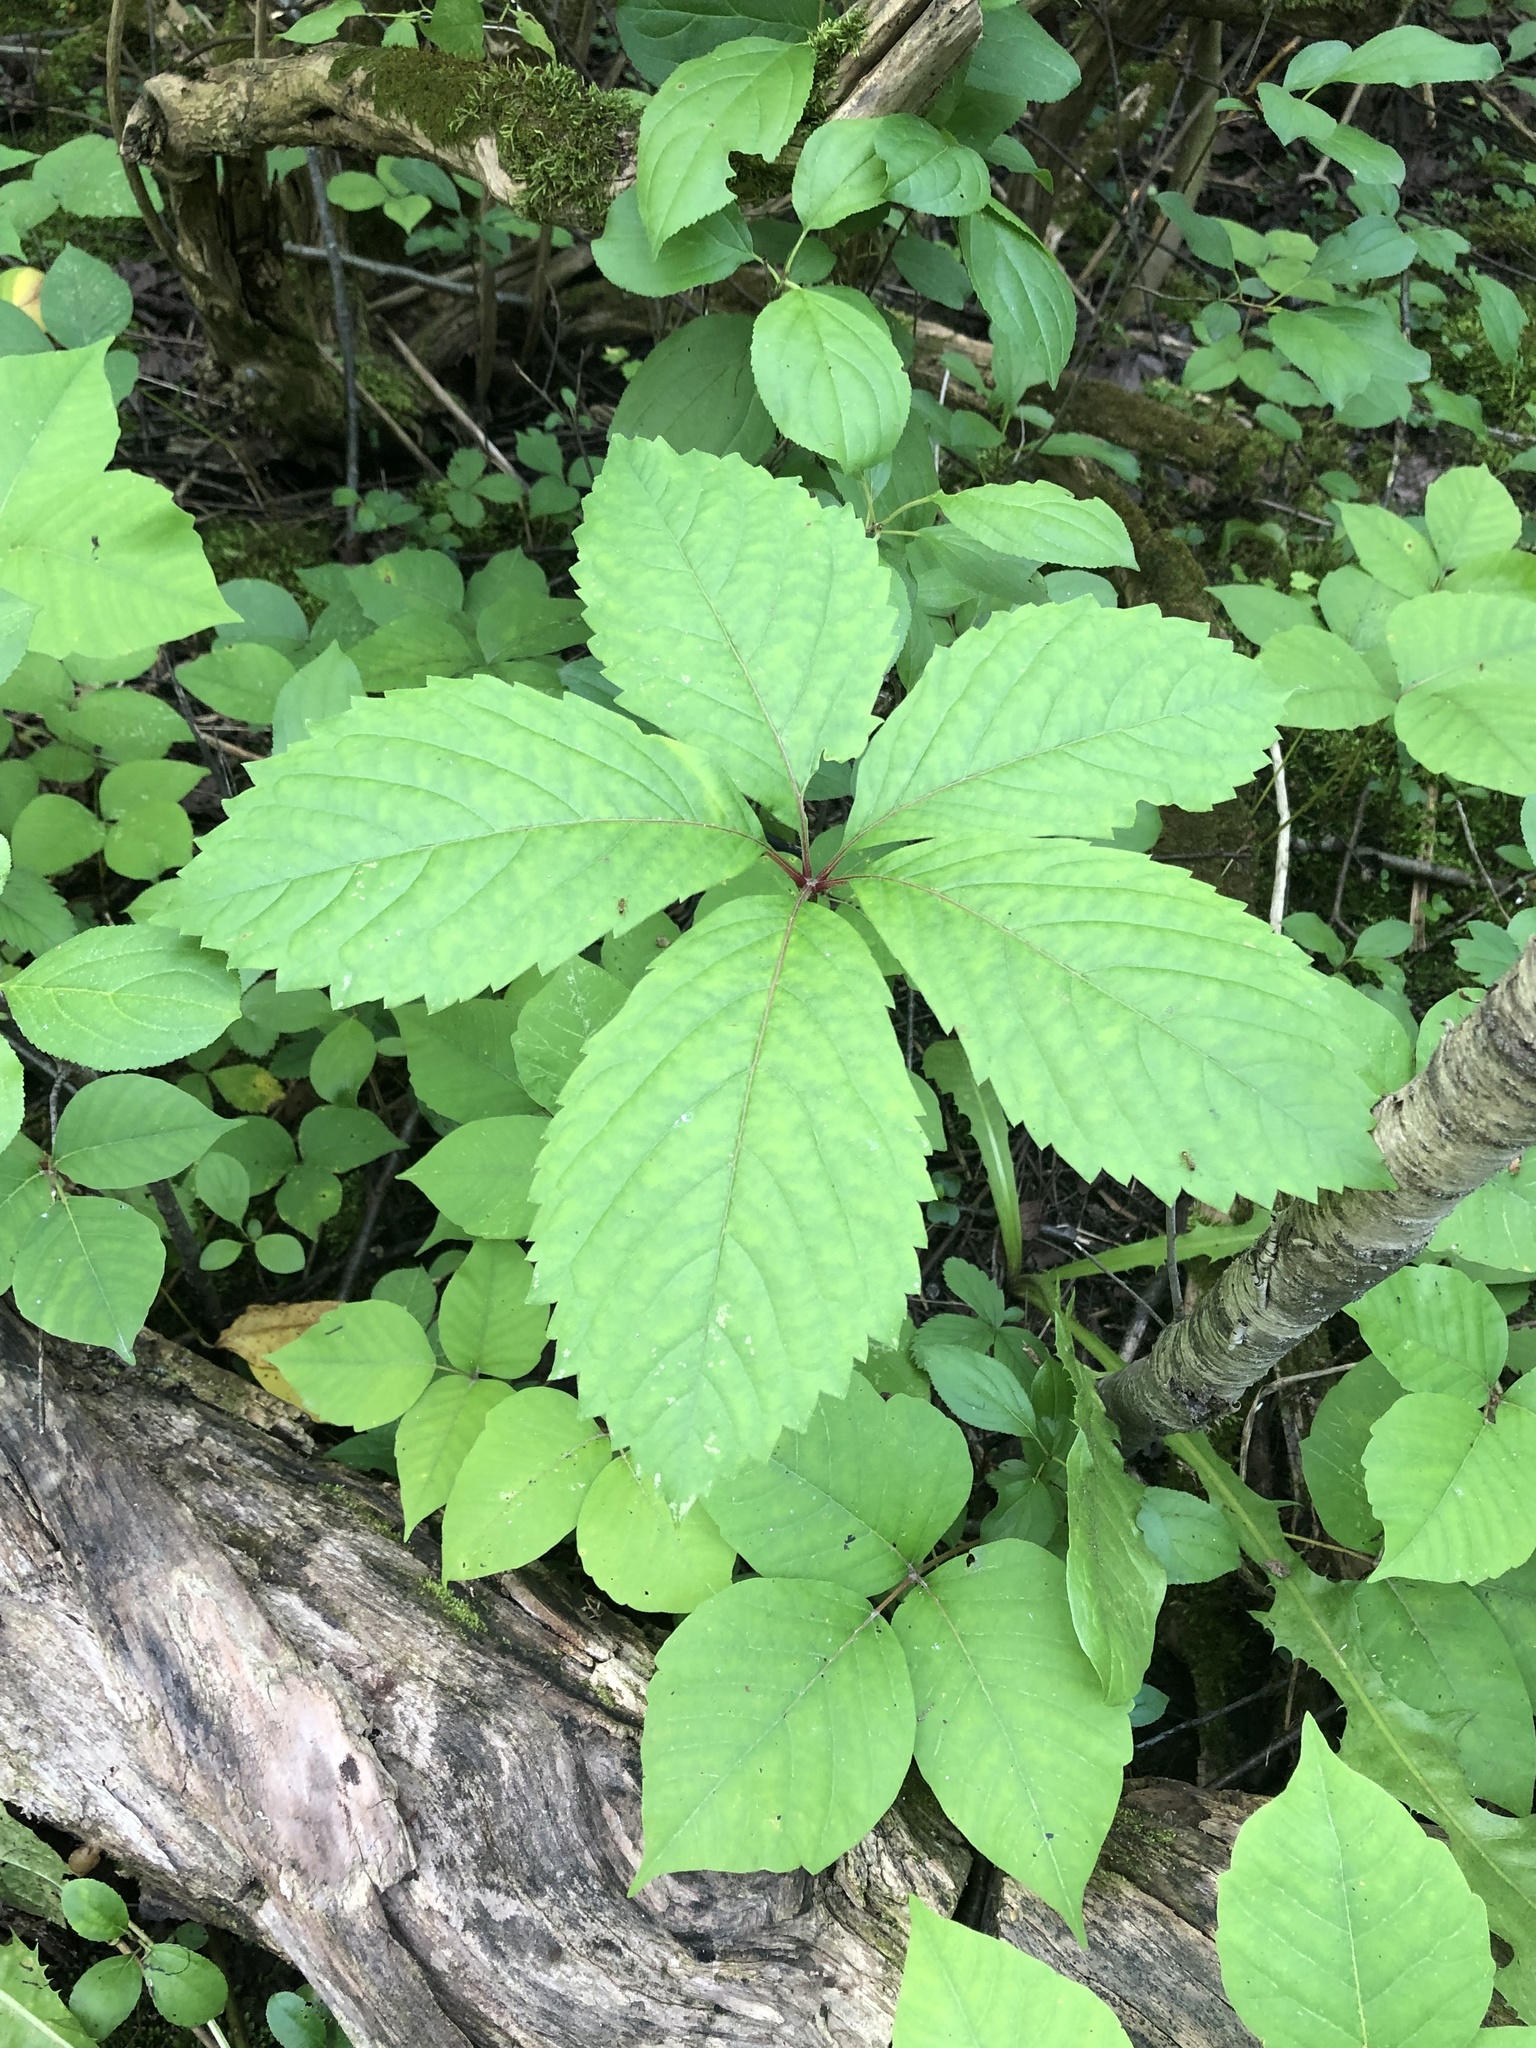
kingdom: Plantae
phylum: Tracheophyta
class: Magnoliopsida
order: Vitales
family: Vitaceae
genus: Parthenocissus
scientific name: Parthenocissus inserta
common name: False virginia-creeper
